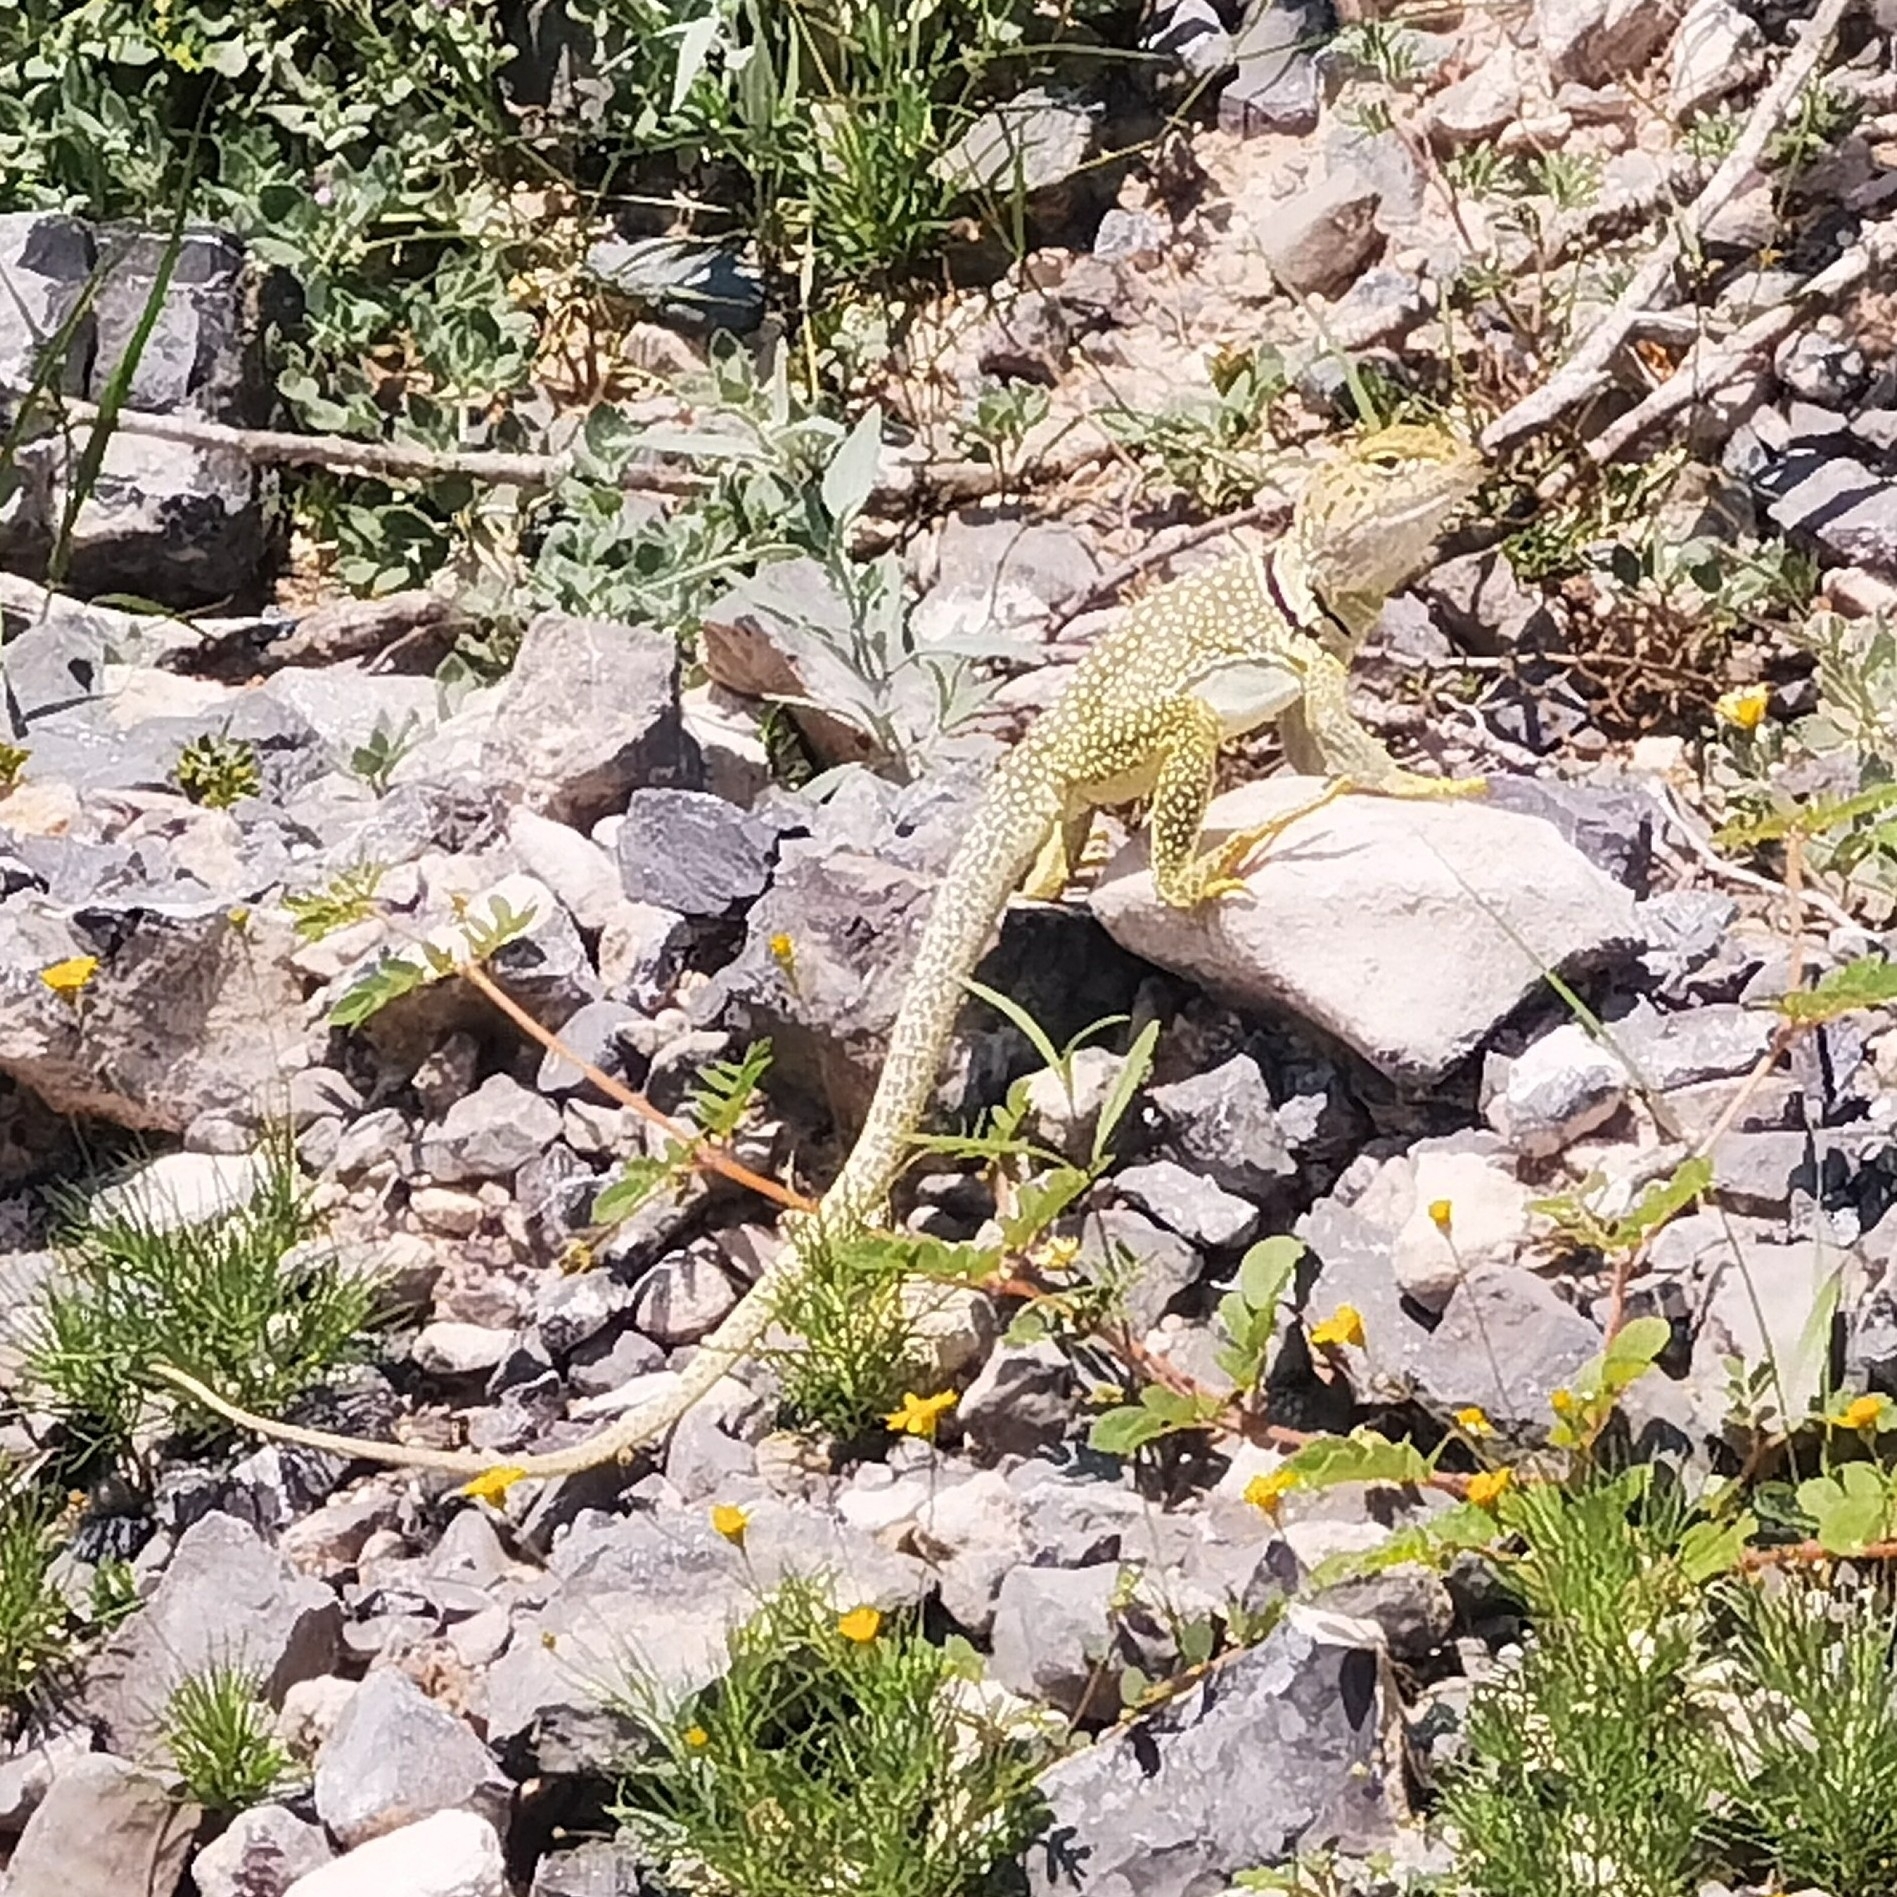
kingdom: Animalia
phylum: Chordata
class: Squamata
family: Crotaphytidae
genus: Crotaphytus
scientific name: Crotaphytus collaris
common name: Collared lizard
